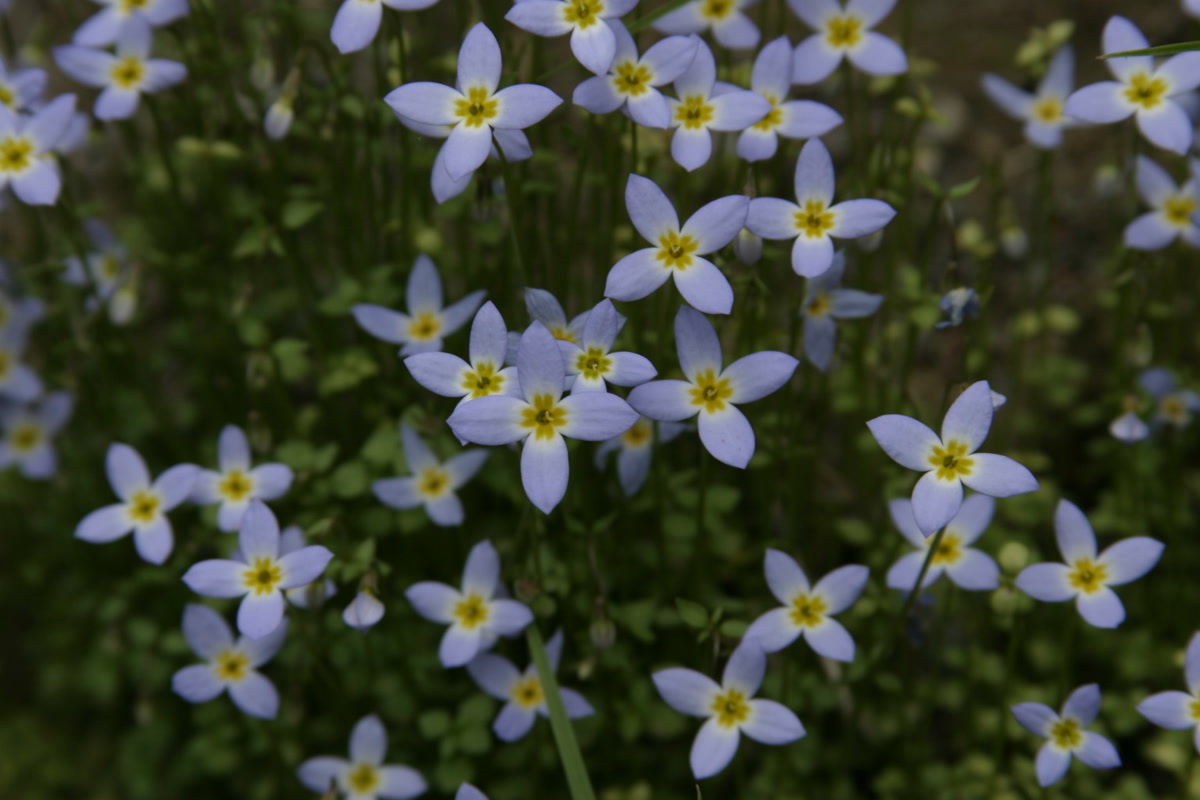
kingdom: Plantae
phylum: Tracheophyta
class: Magnoliopsida
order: Gentianales
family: Rubiaceae
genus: Houstonia
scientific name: Houstonia serpyllifolia
